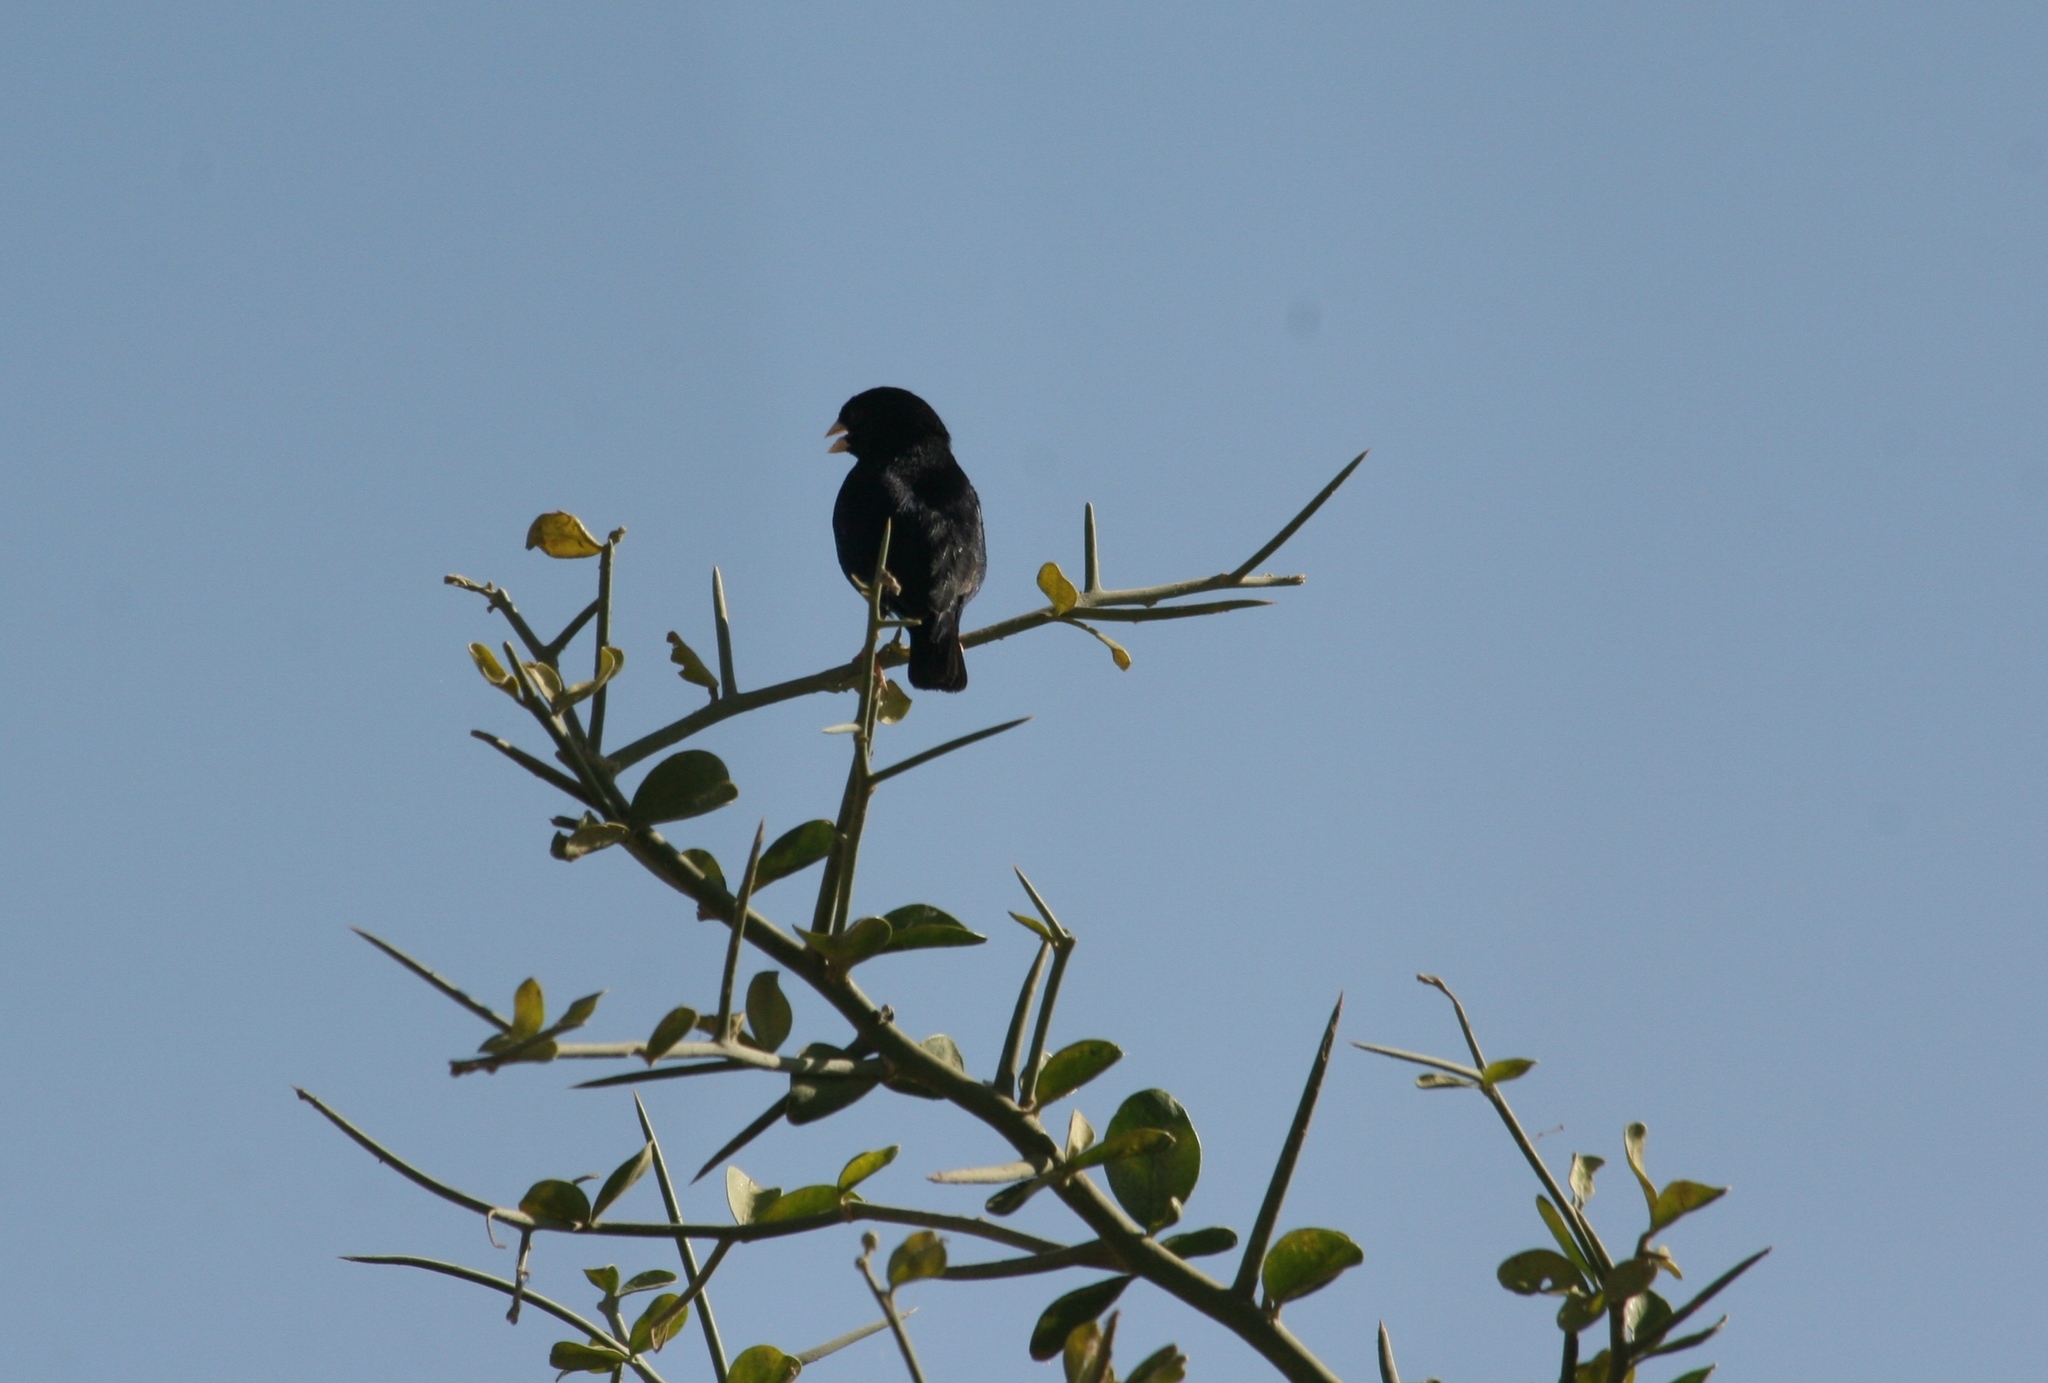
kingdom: Animalia
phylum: Chordata
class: Aves
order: Passeriformes
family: Viduidae
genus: Vidua
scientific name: Vidua chalybeata
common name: Village indigobird
